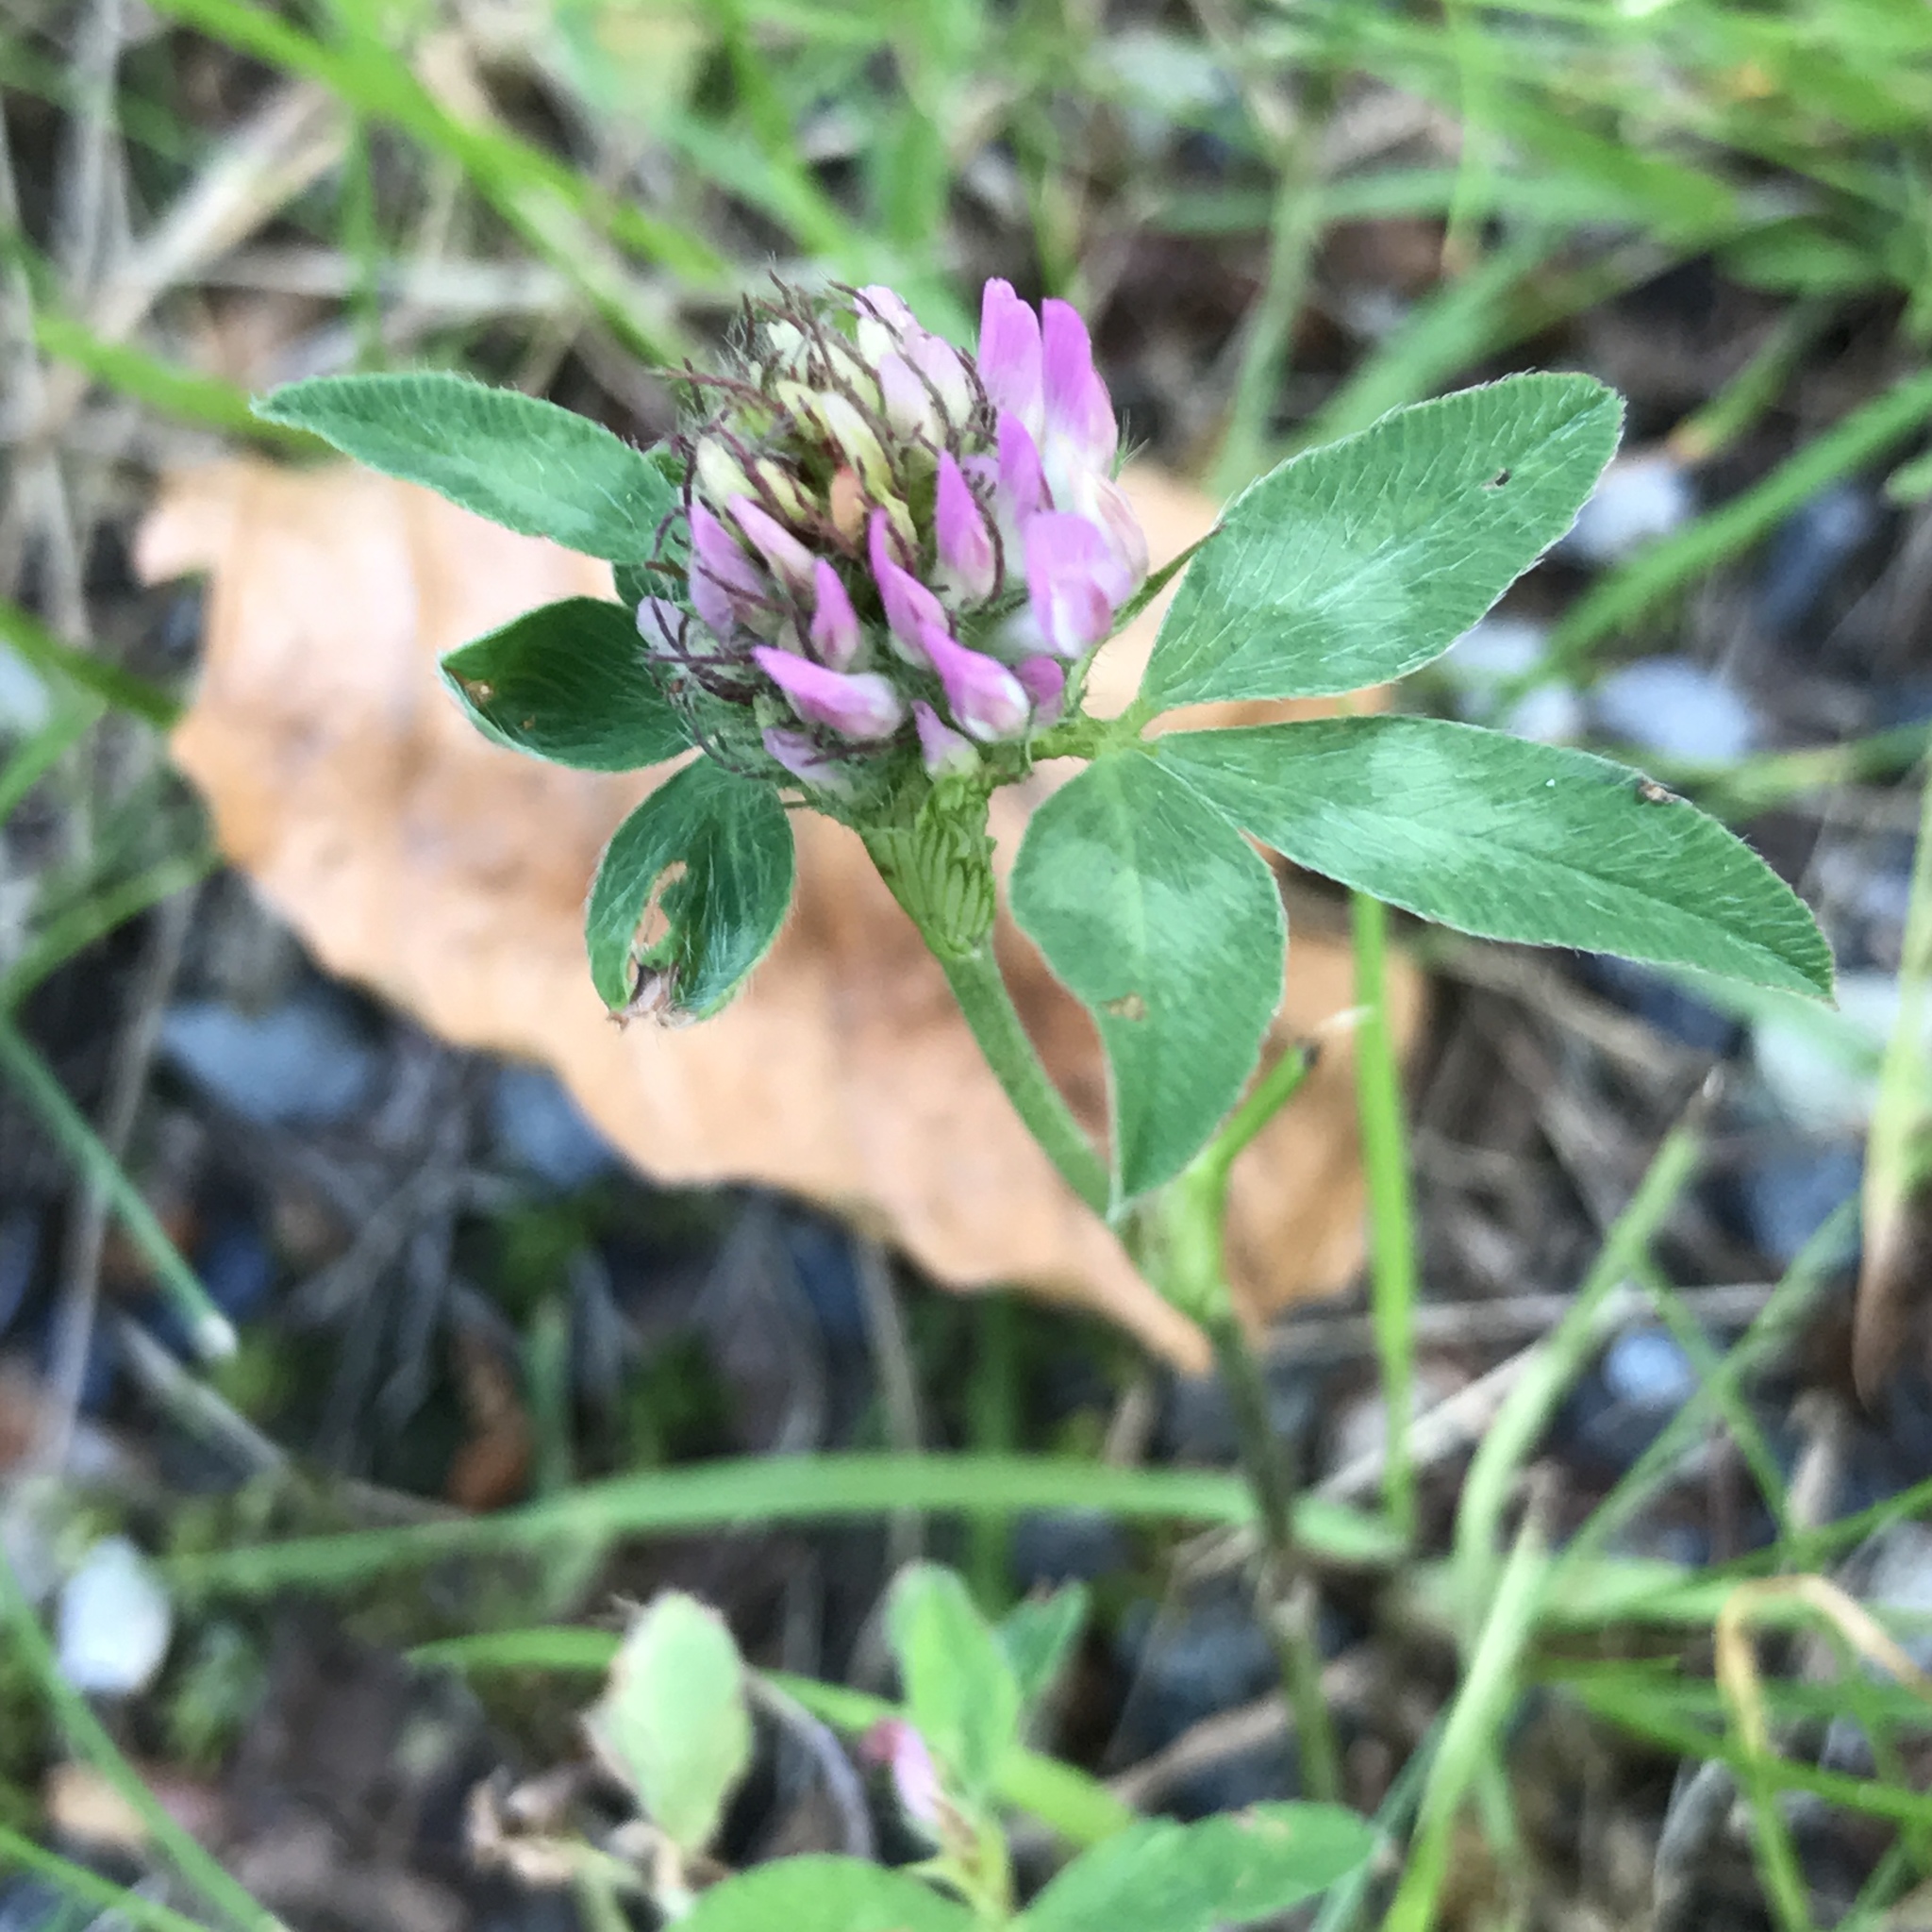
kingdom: Plantae
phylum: Tracheophyta
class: Magnoliopsida
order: Fabales
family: Fabaceae
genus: Trifolium
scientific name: Trifolium pratense
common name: Red clover
